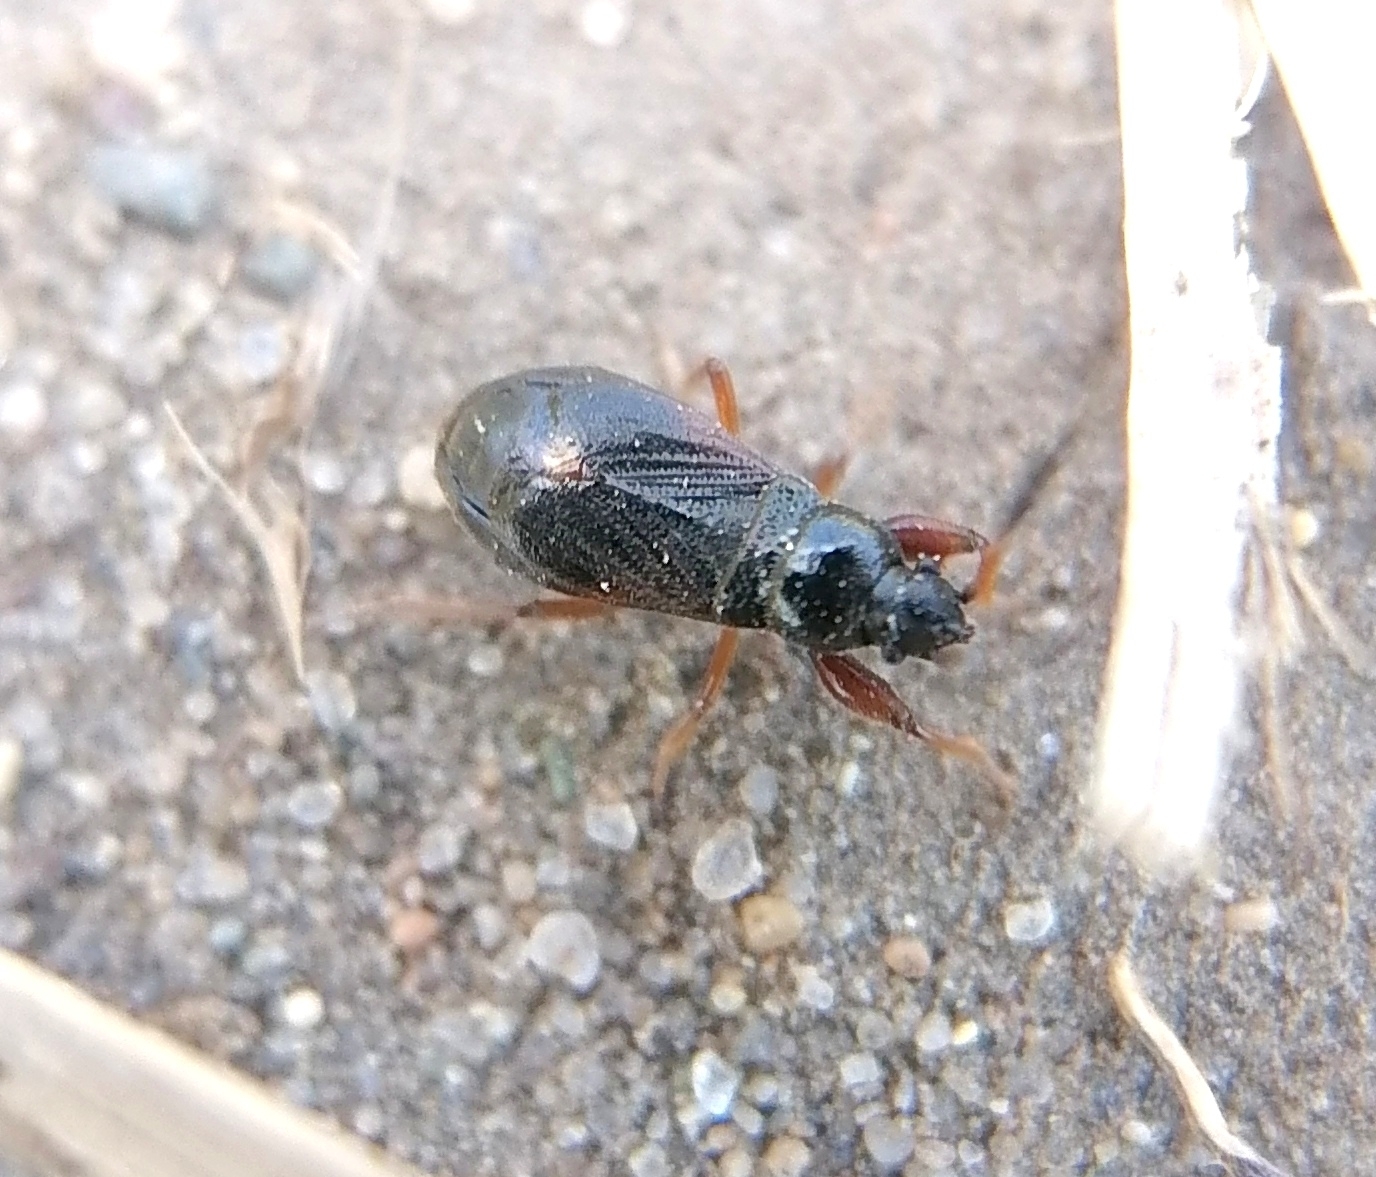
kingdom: Animalia
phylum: Arthropoda
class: Insecta
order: Hemiptera
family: Rhyparochromidae
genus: Megalonotus
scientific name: Megalonotus antennatus
